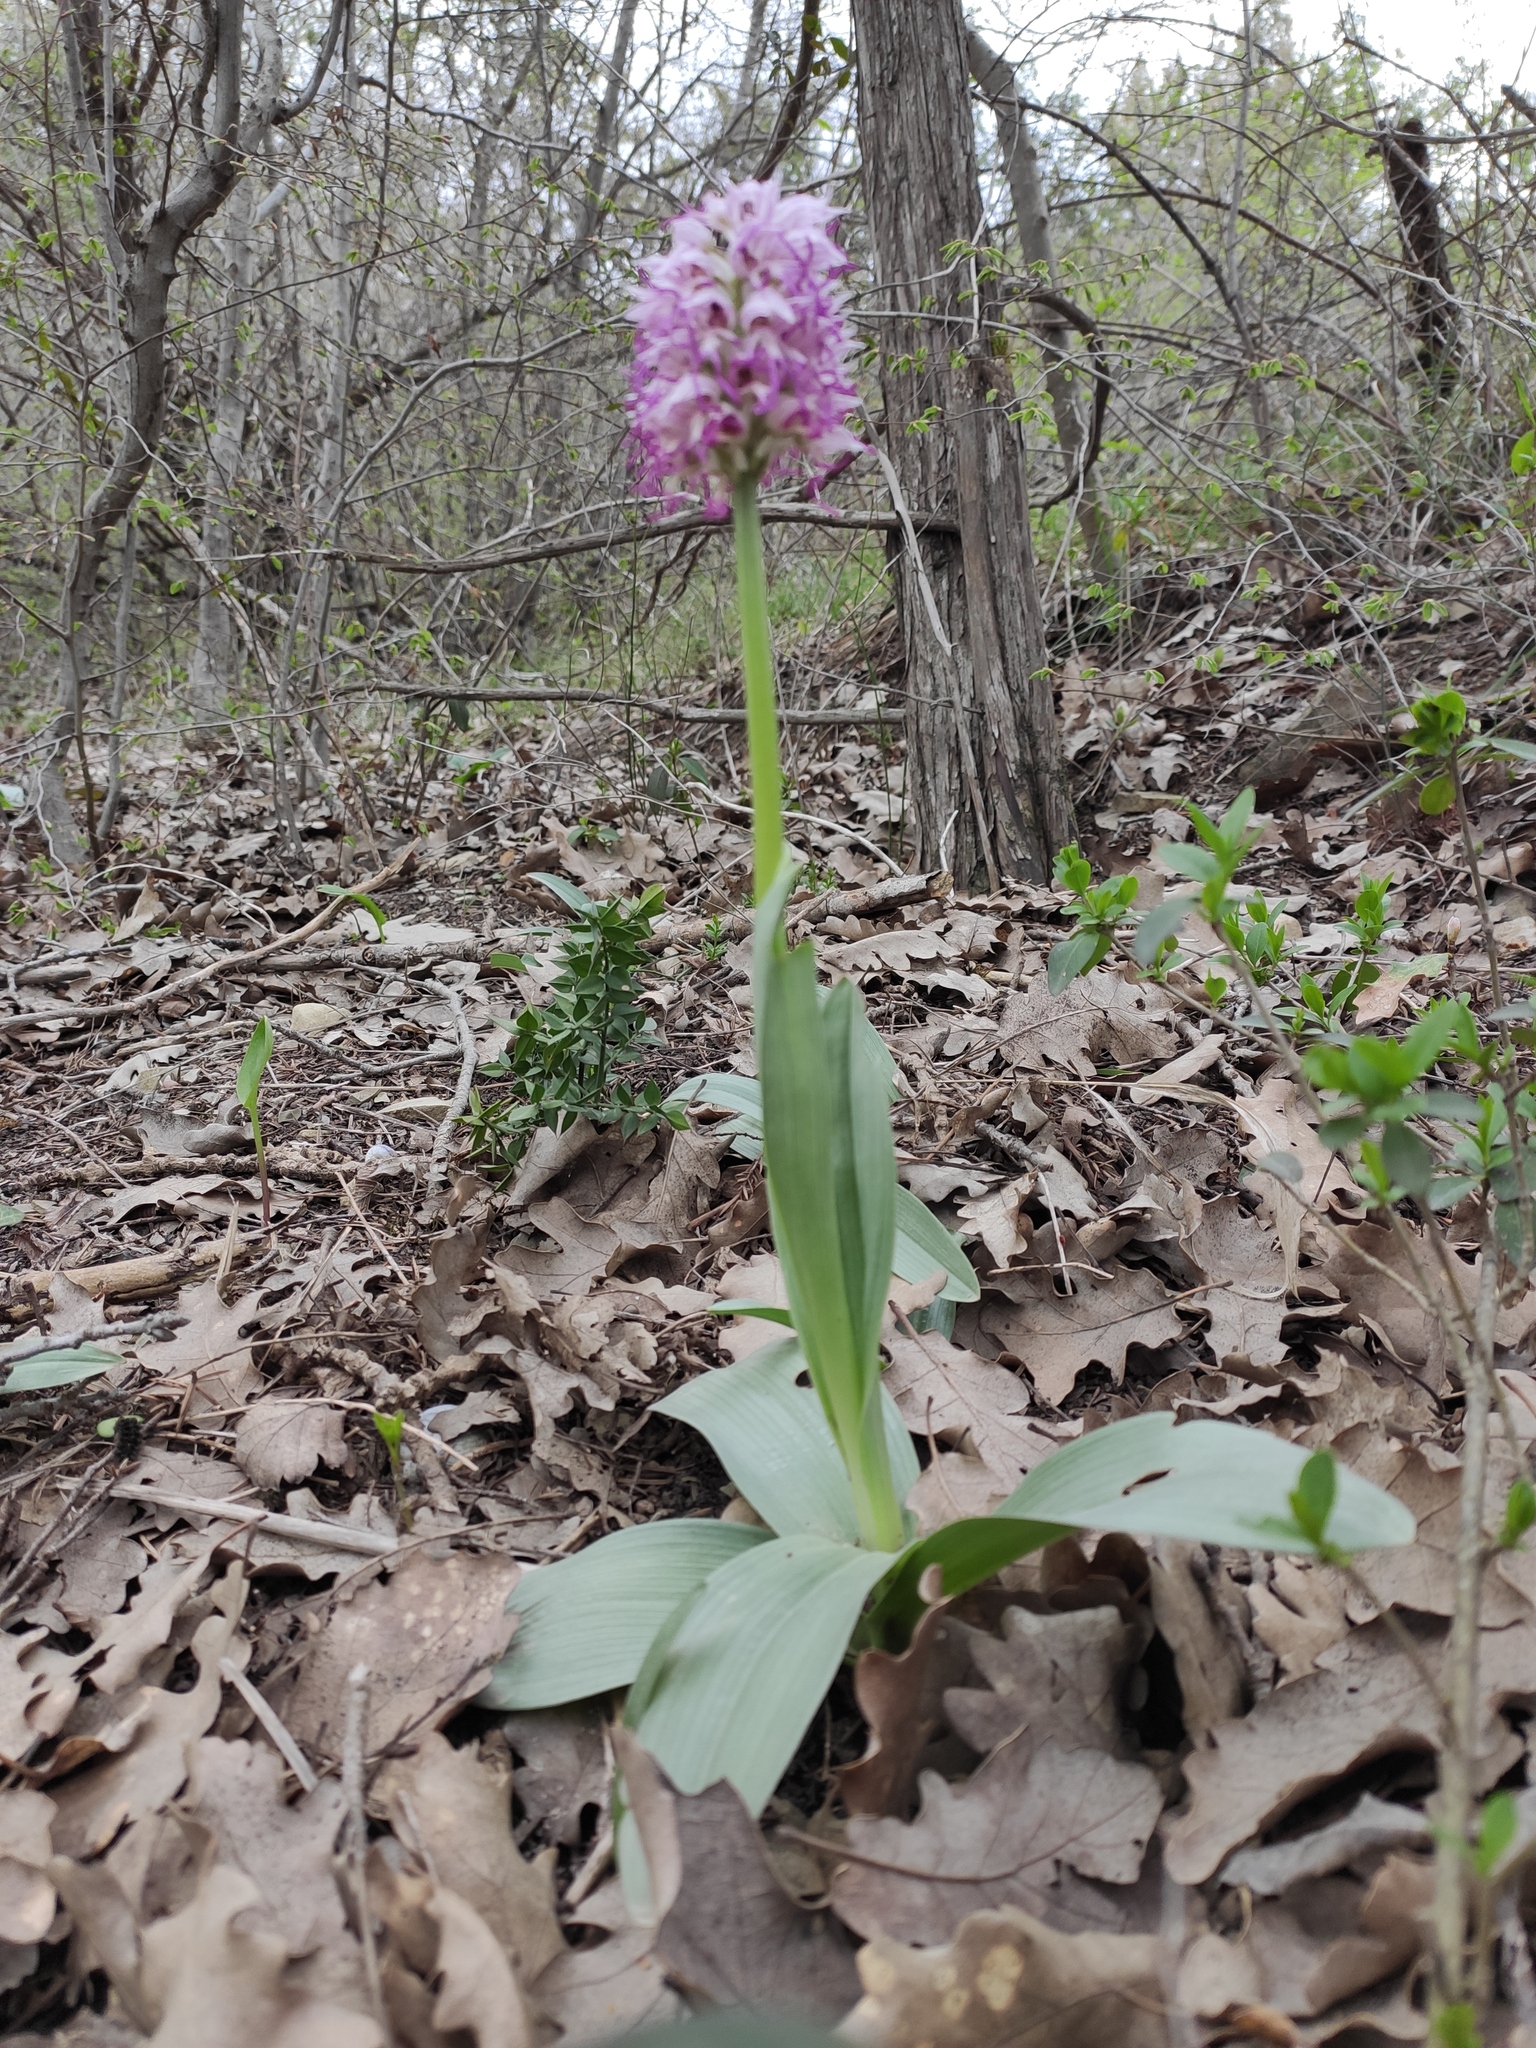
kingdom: Plantae
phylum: Tracheophyta
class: Liliopsida
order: Asparagales
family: Orchidaceae
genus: Orchis
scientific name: Orchis simia
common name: Monkey orchid
